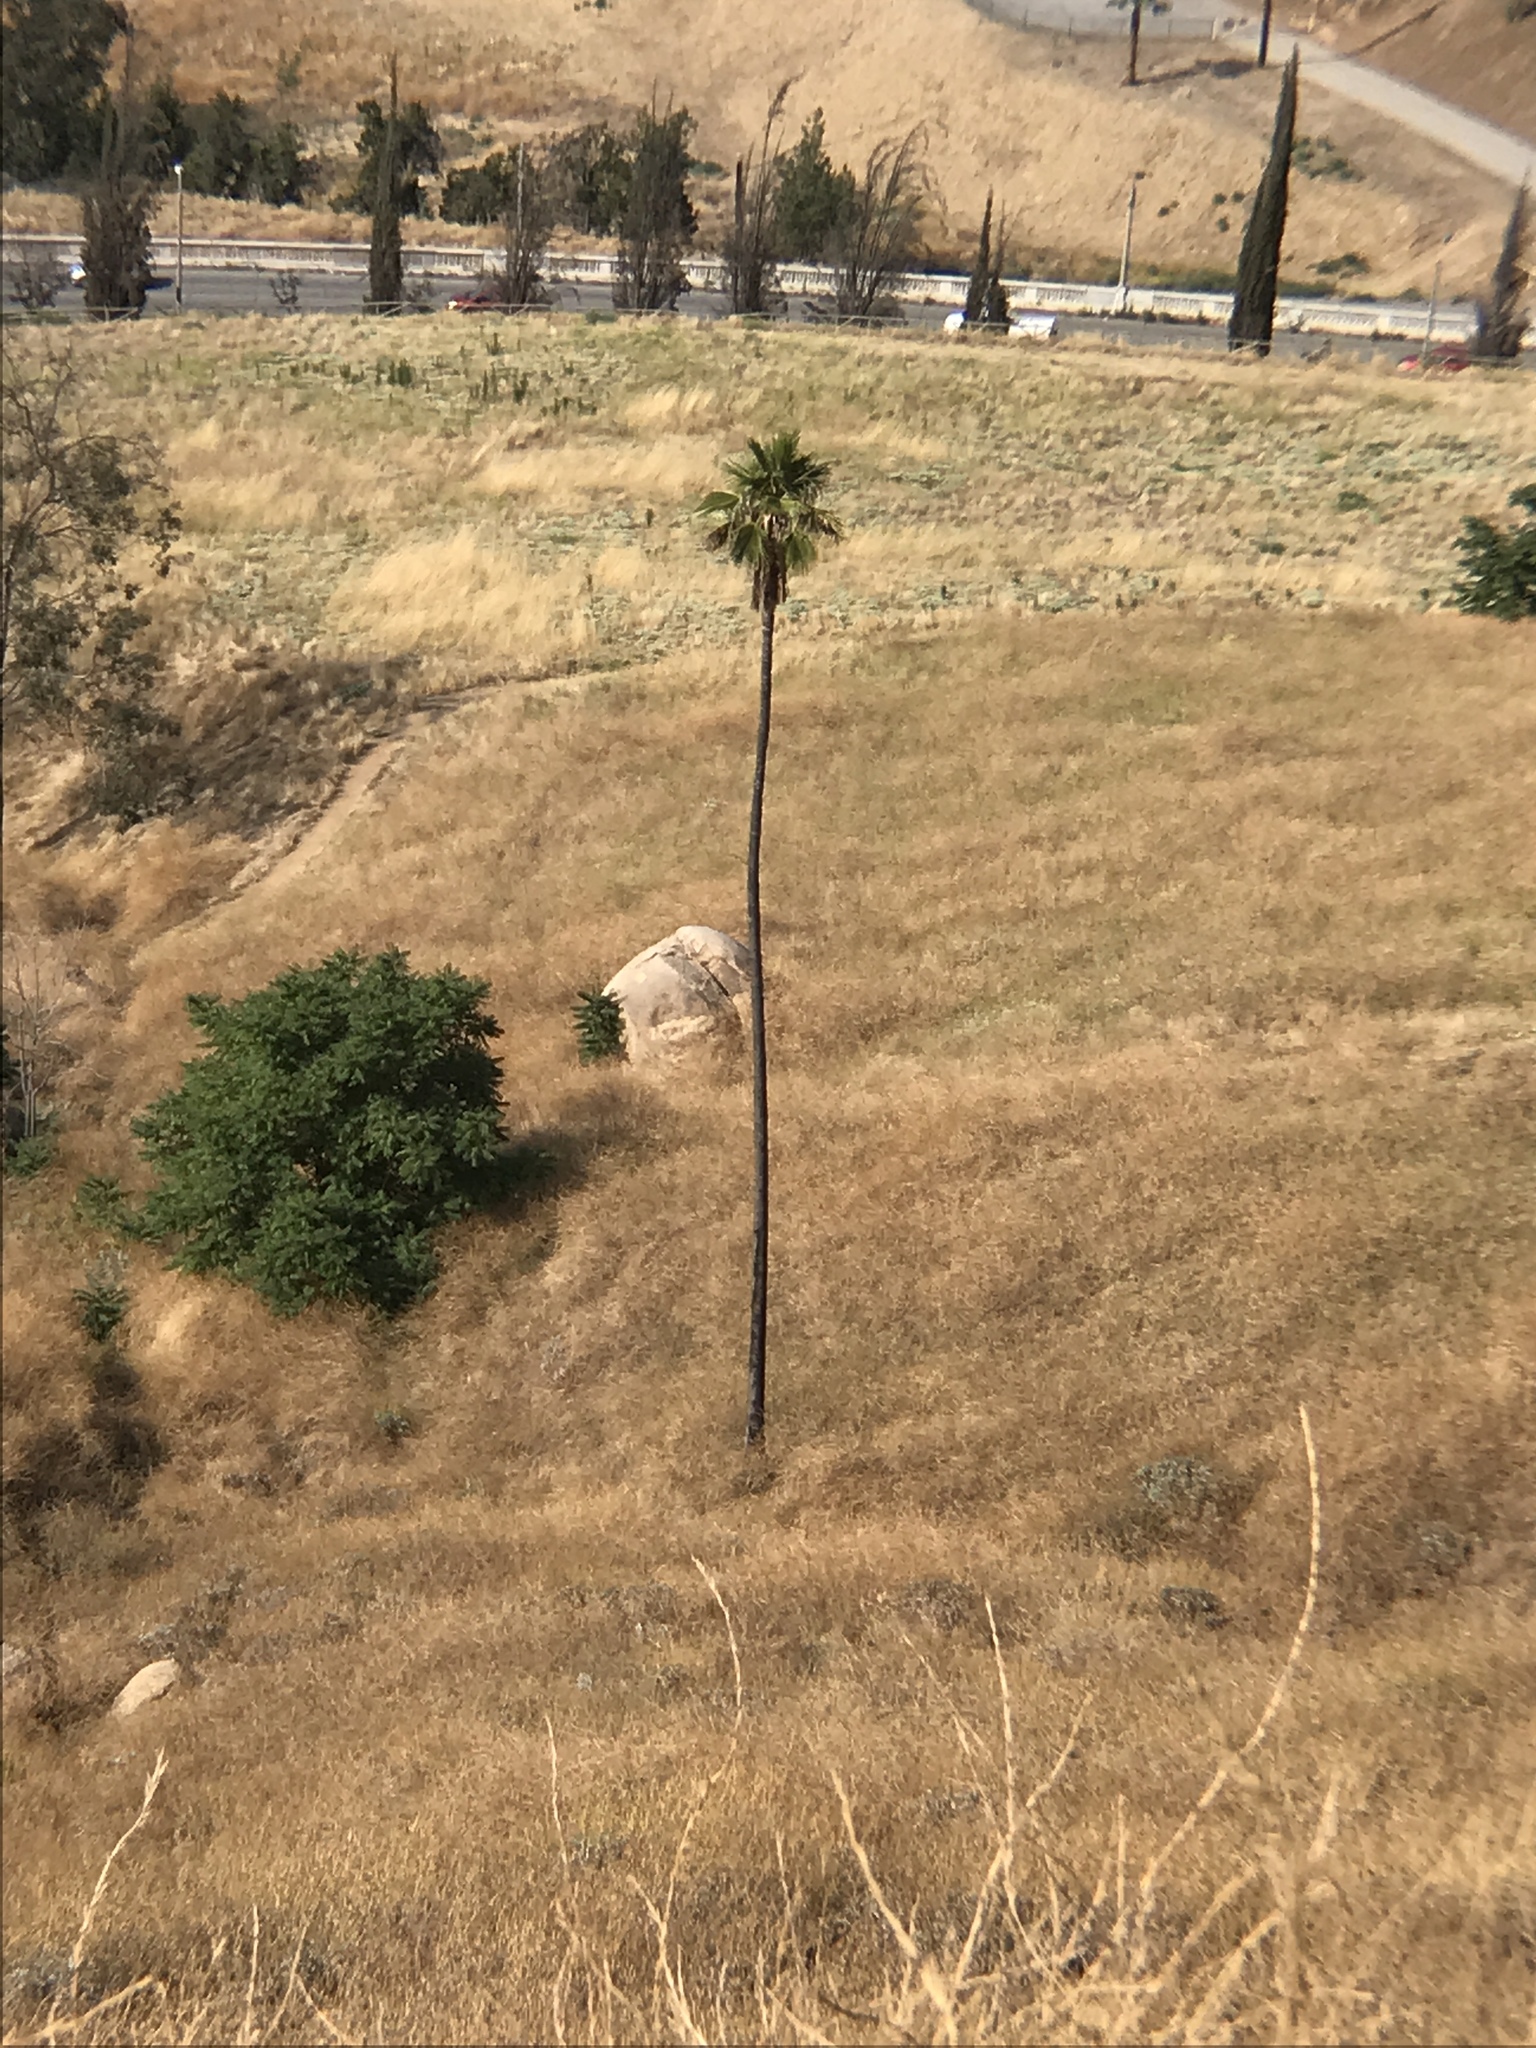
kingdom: Plantae
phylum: Tracheophyta
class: Liliopsida
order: Arecales
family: Arecaceae
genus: Washingtonia
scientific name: Washingtonia robusta
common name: Mexican fan palm
